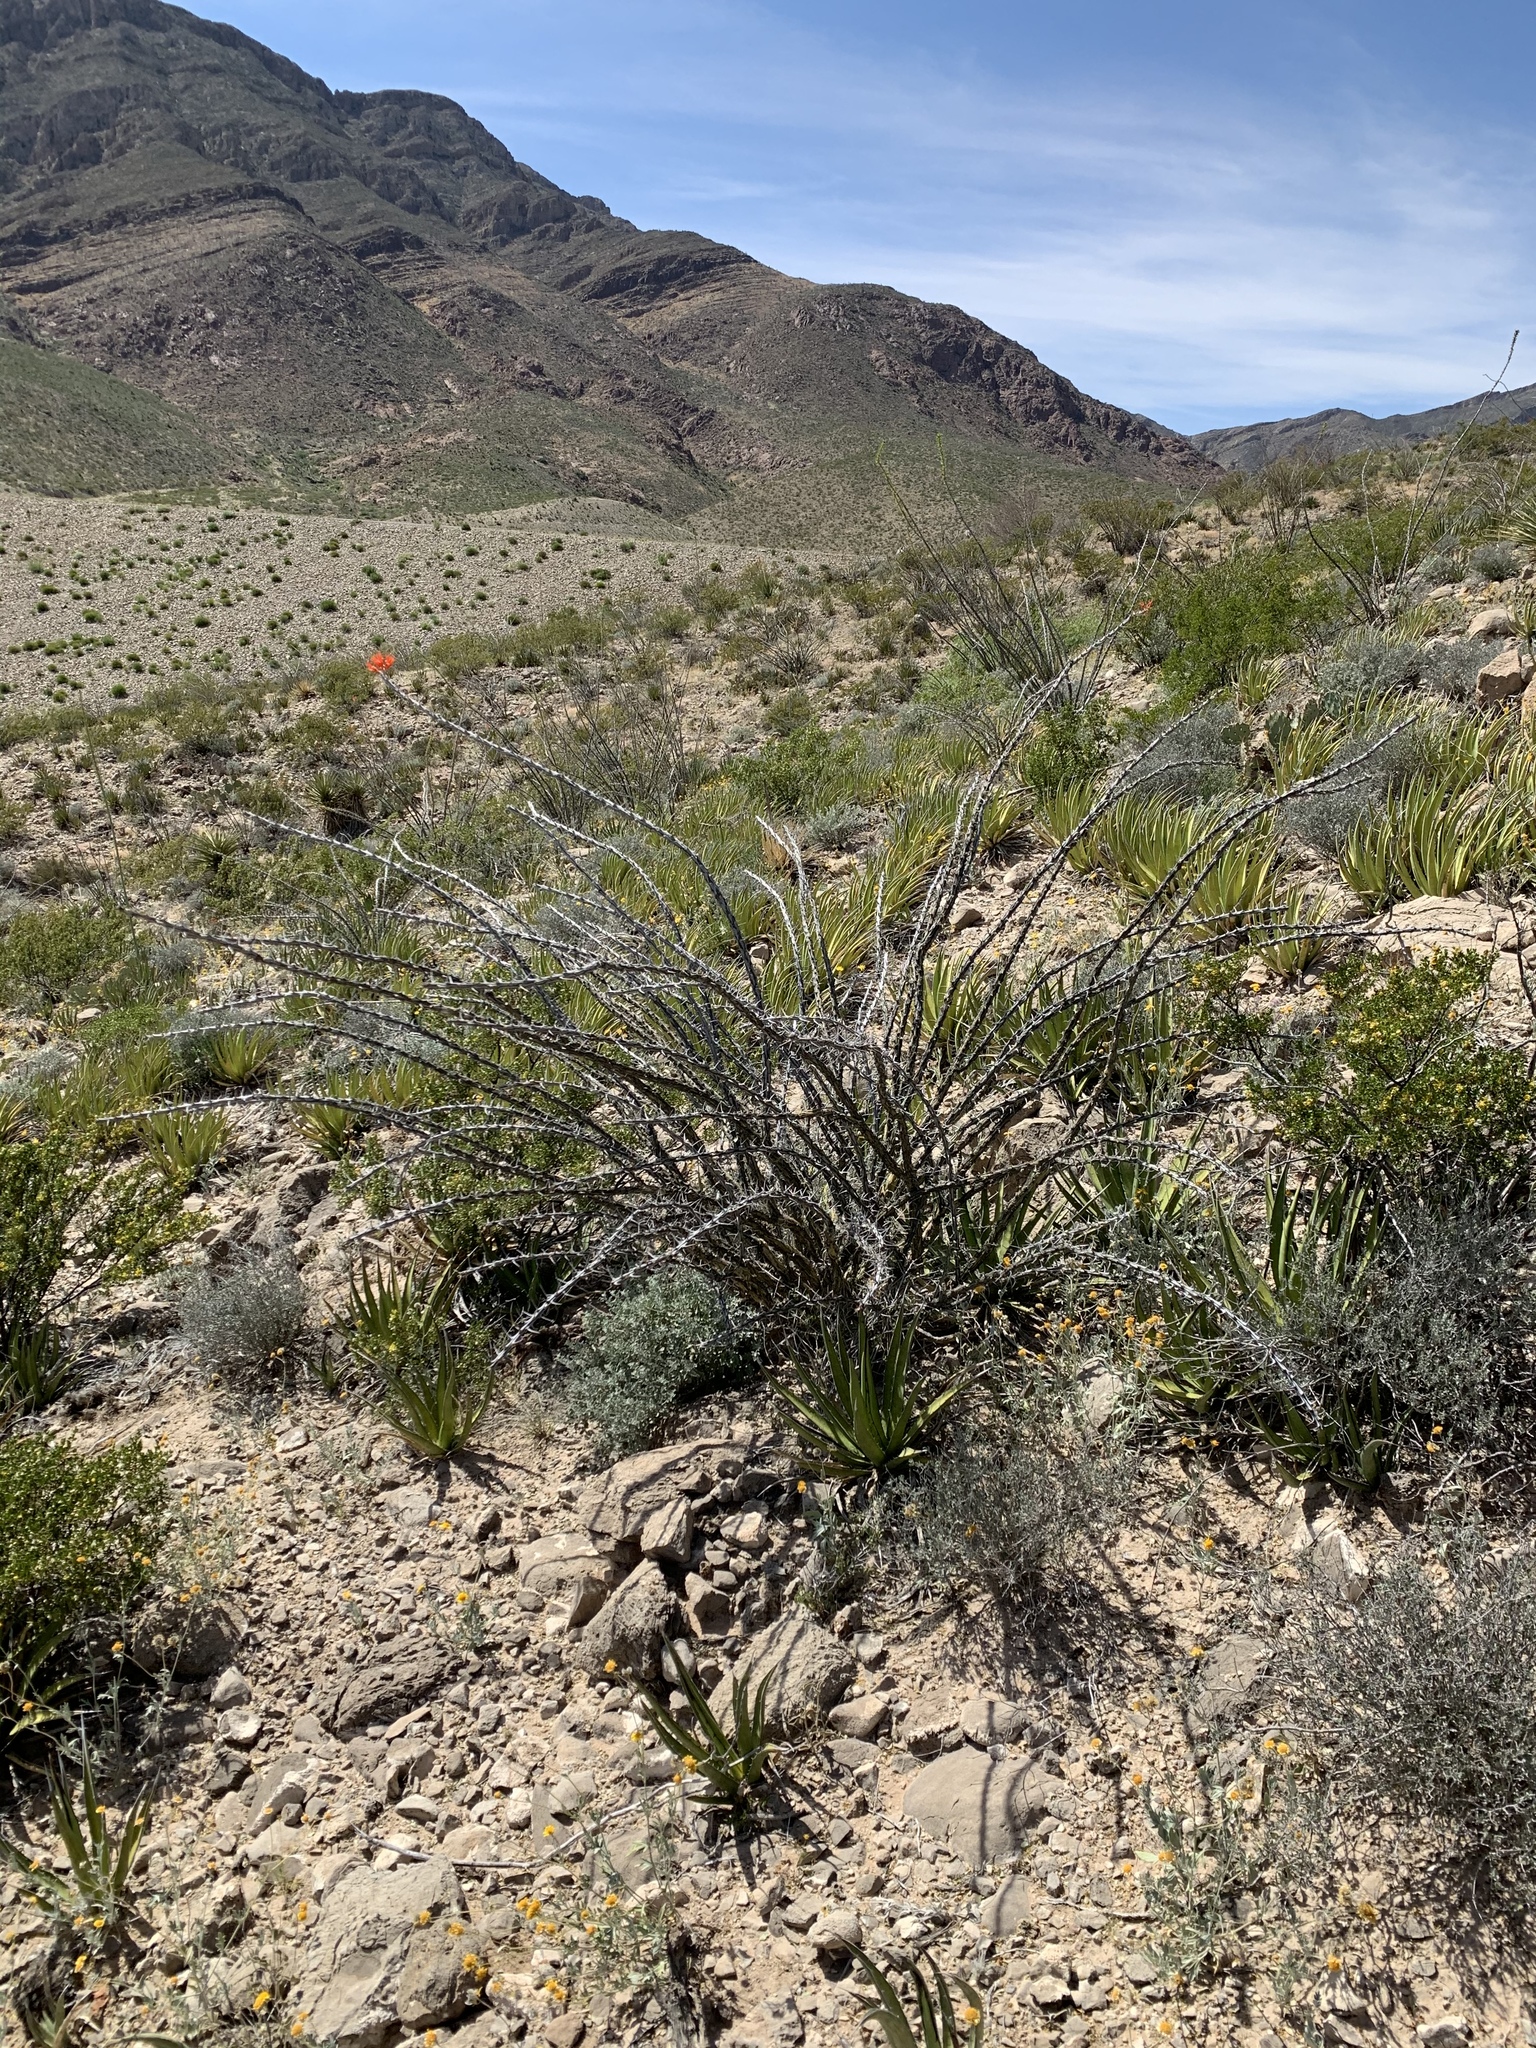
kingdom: Plantae
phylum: Tracheophyta
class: Magnoliopsida
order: Ericales
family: Fouquieriaceae
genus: Fouquieria
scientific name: Fouquieria splendens
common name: Vine-cactus
